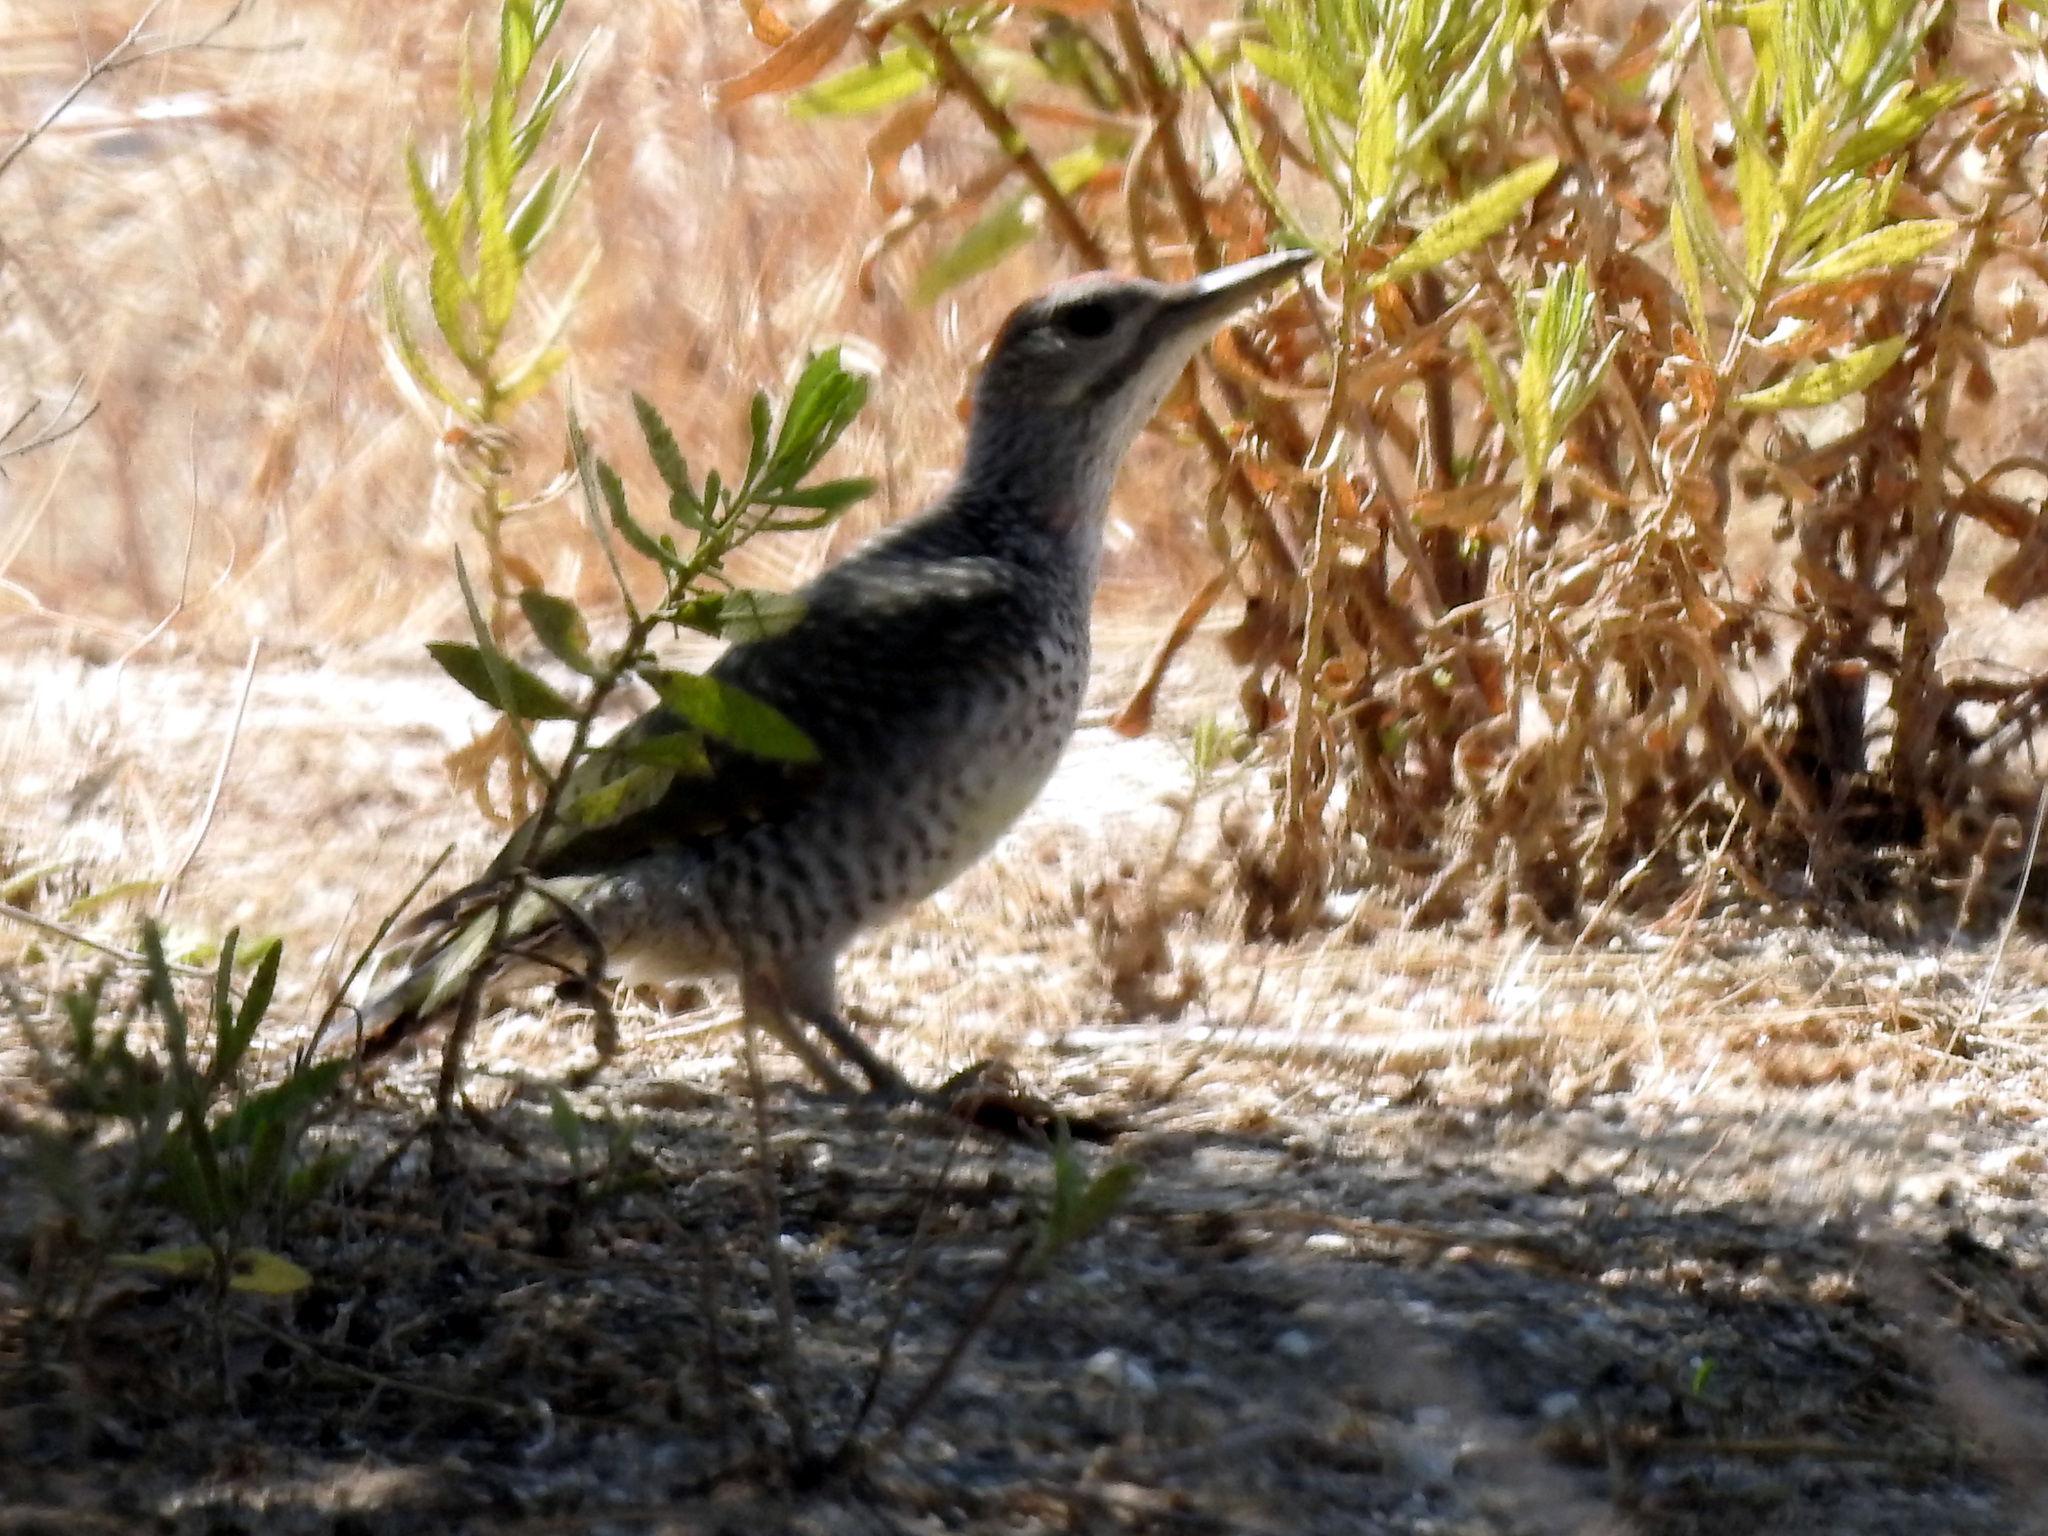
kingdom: Animalia
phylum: Chordata
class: Aves
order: Piciformes
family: Picidae
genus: Picus
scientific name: Picus sharpei
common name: Iberian green woodpecker
